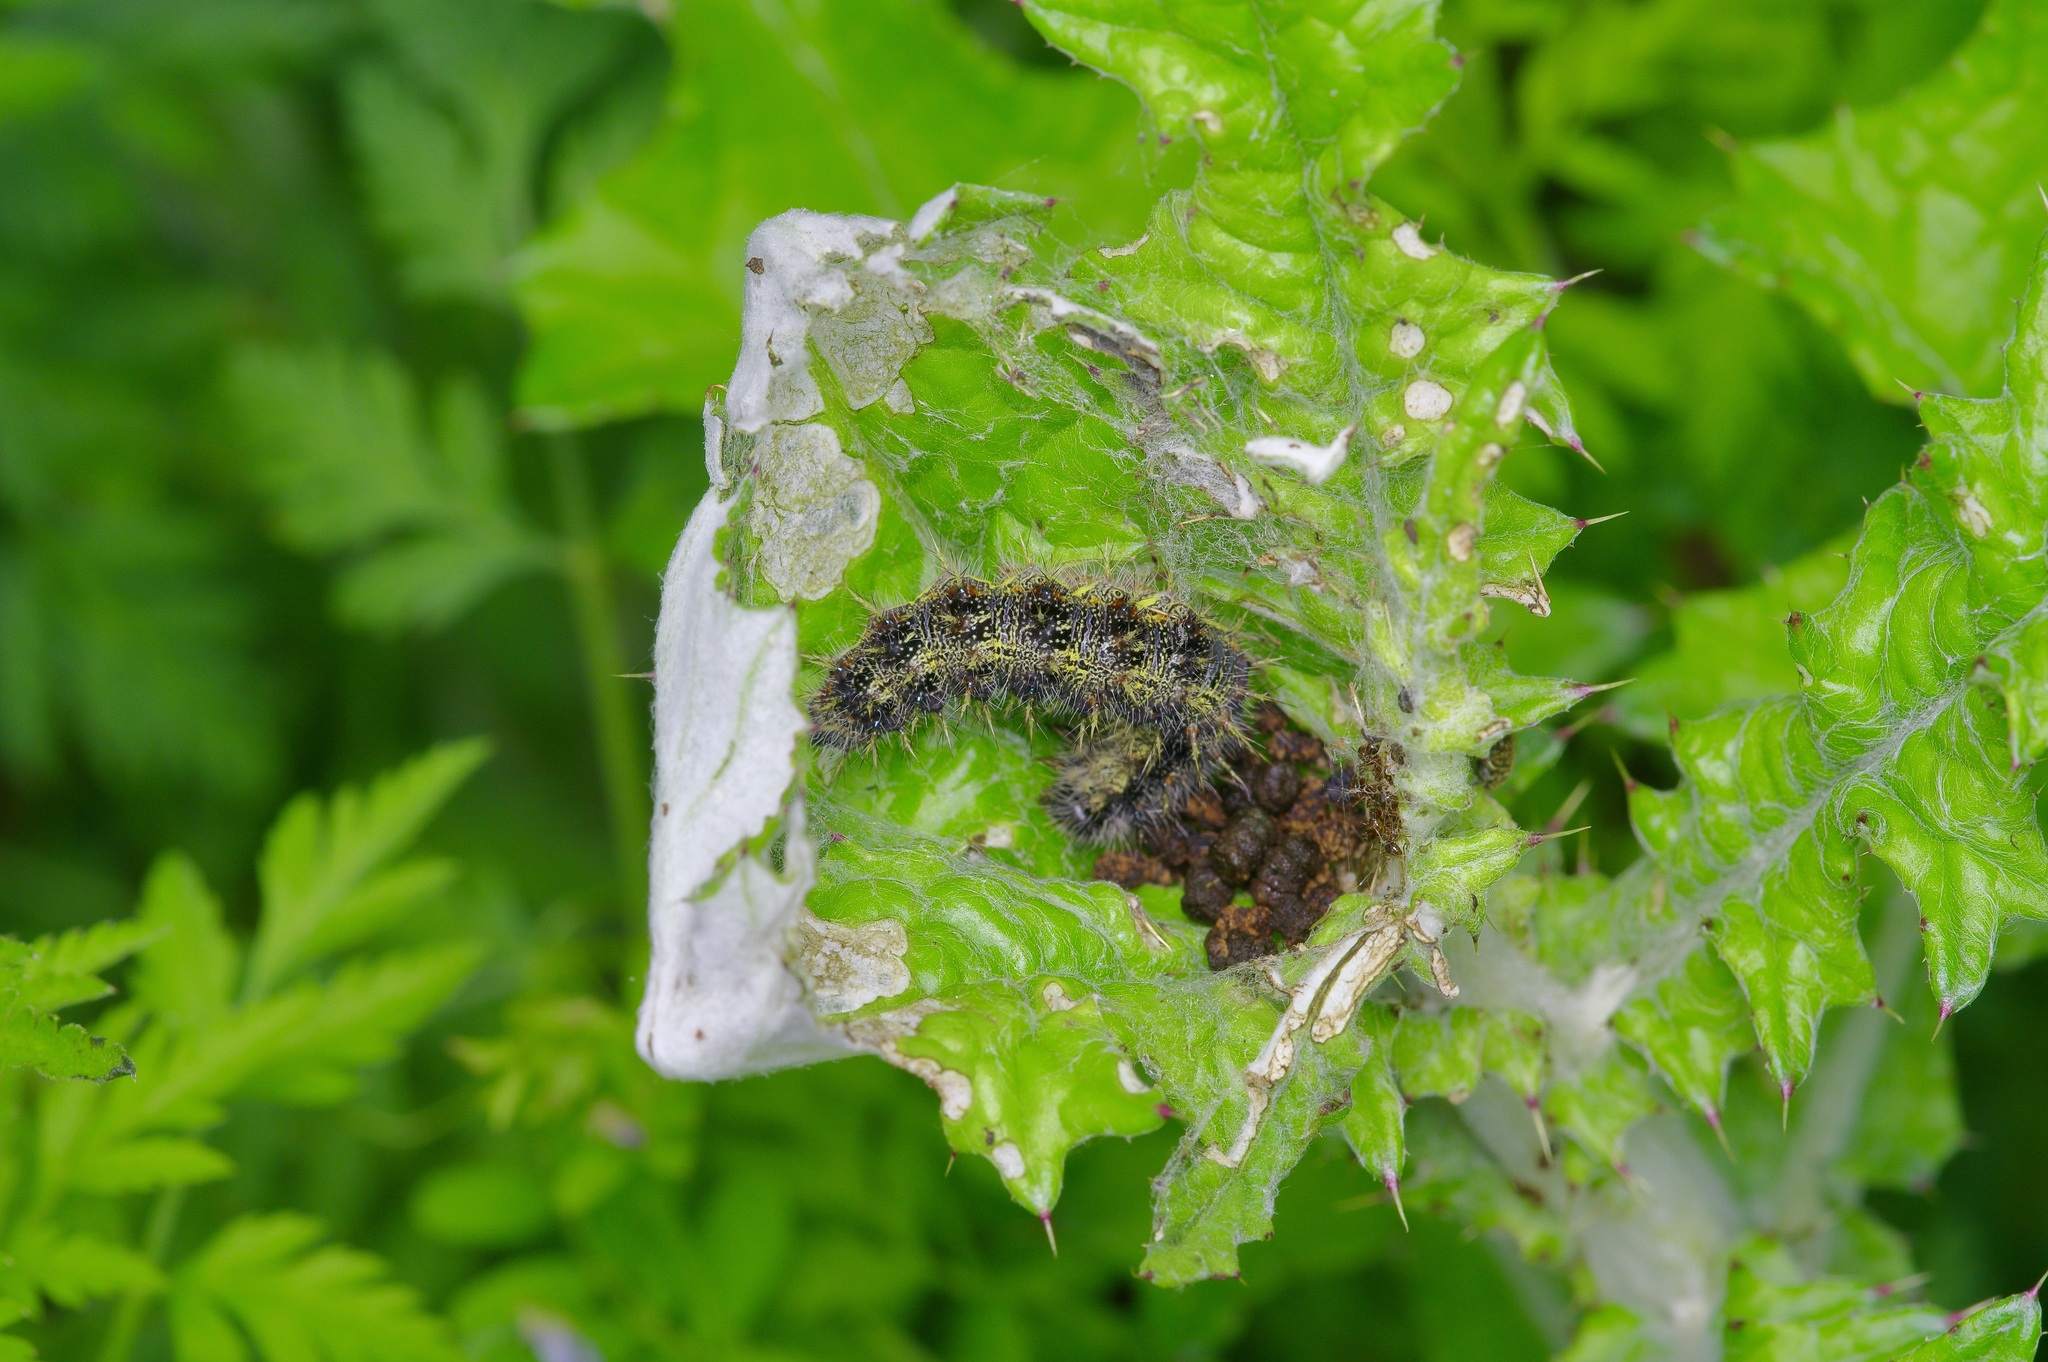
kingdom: Animalia
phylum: Arthropoda
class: Insecta
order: Lepidoptera
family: Nymphalidae
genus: Vanessa
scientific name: Vanessa cardui
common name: Painted lady
